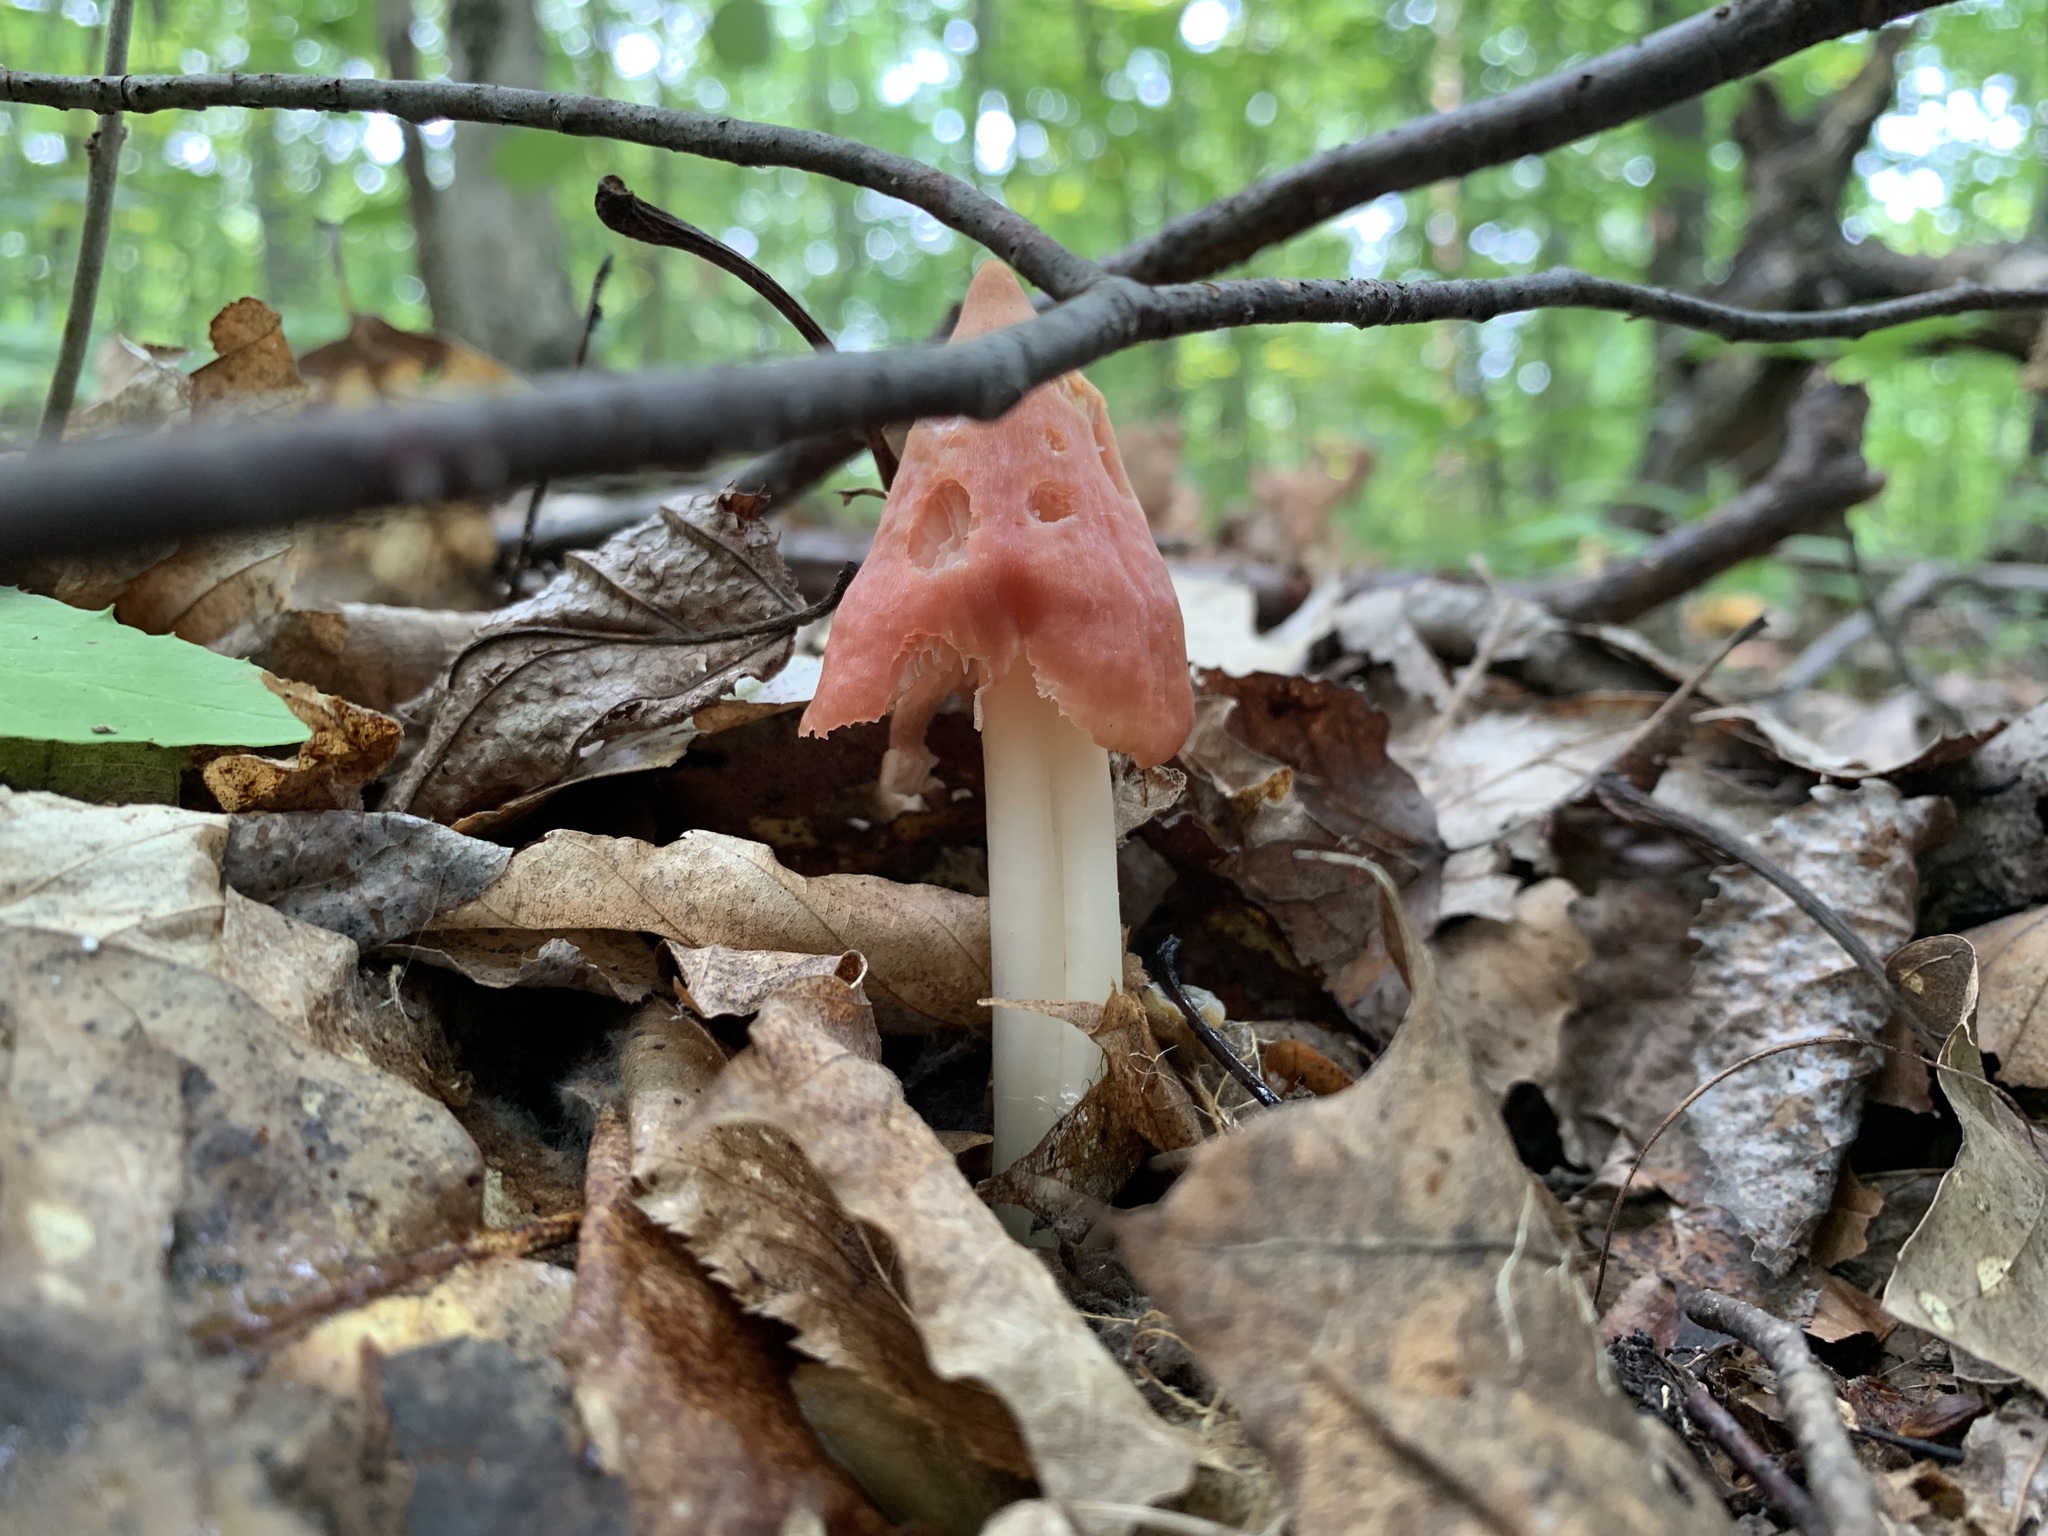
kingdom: Fungi
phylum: Basidiomycota
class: Agaricomycetes
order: Agaricales
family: Hygrophoraceae
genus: Porpolomopsis
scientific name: Porpolomopsis calyptriformis
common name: Pink waxcap
